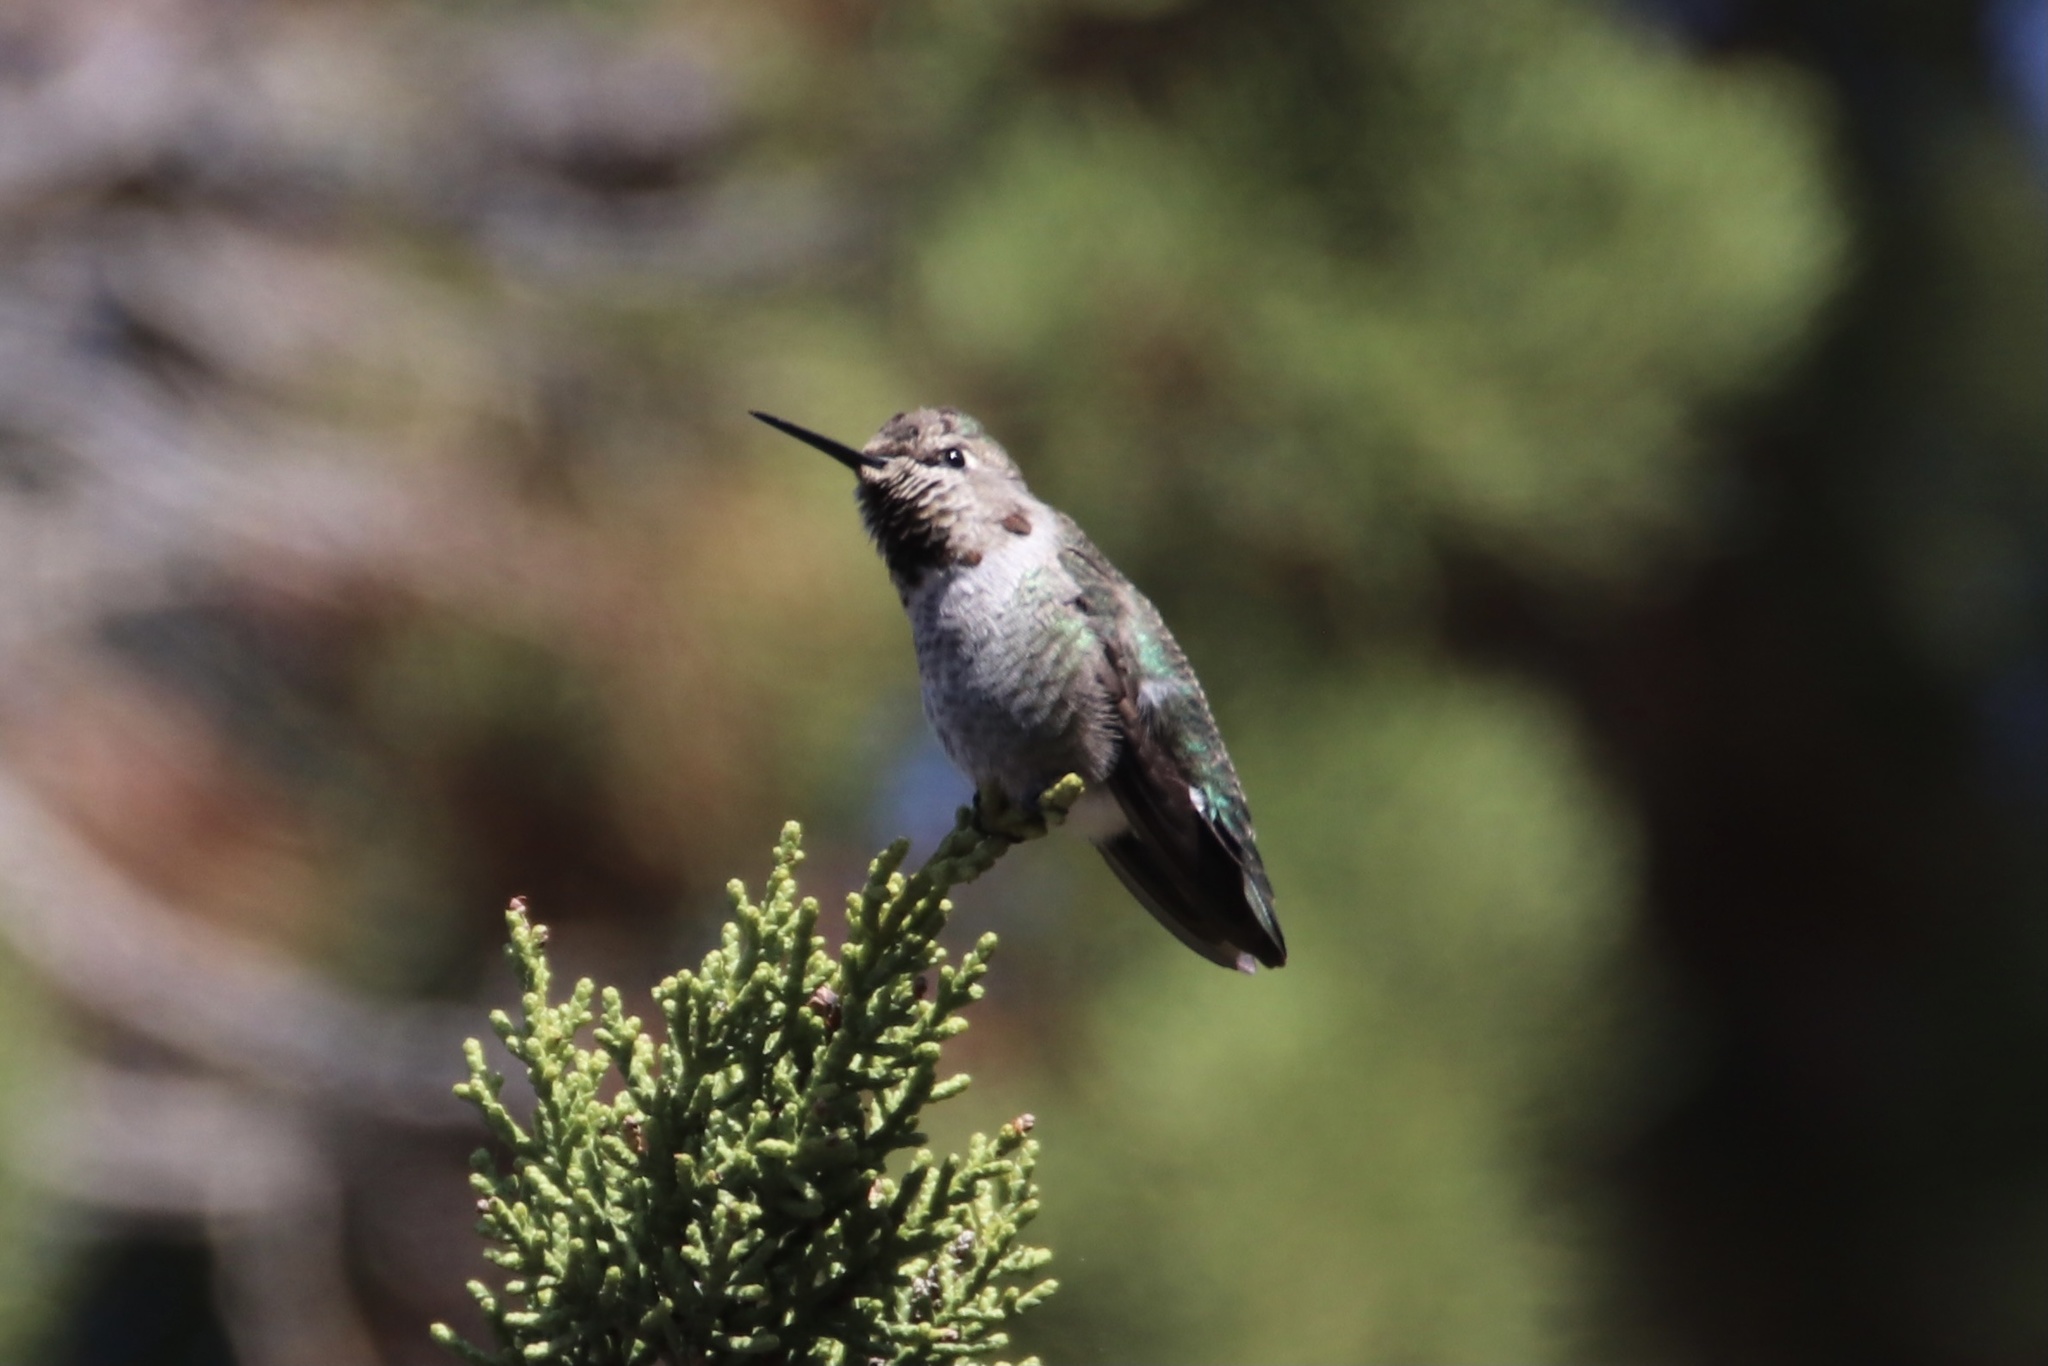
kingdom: Animalia
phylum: Chordata
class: Aves
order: Apodiformes
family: Trochilidae
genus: Calypte
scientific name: Calypte anna
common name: Anna's hummingbird
